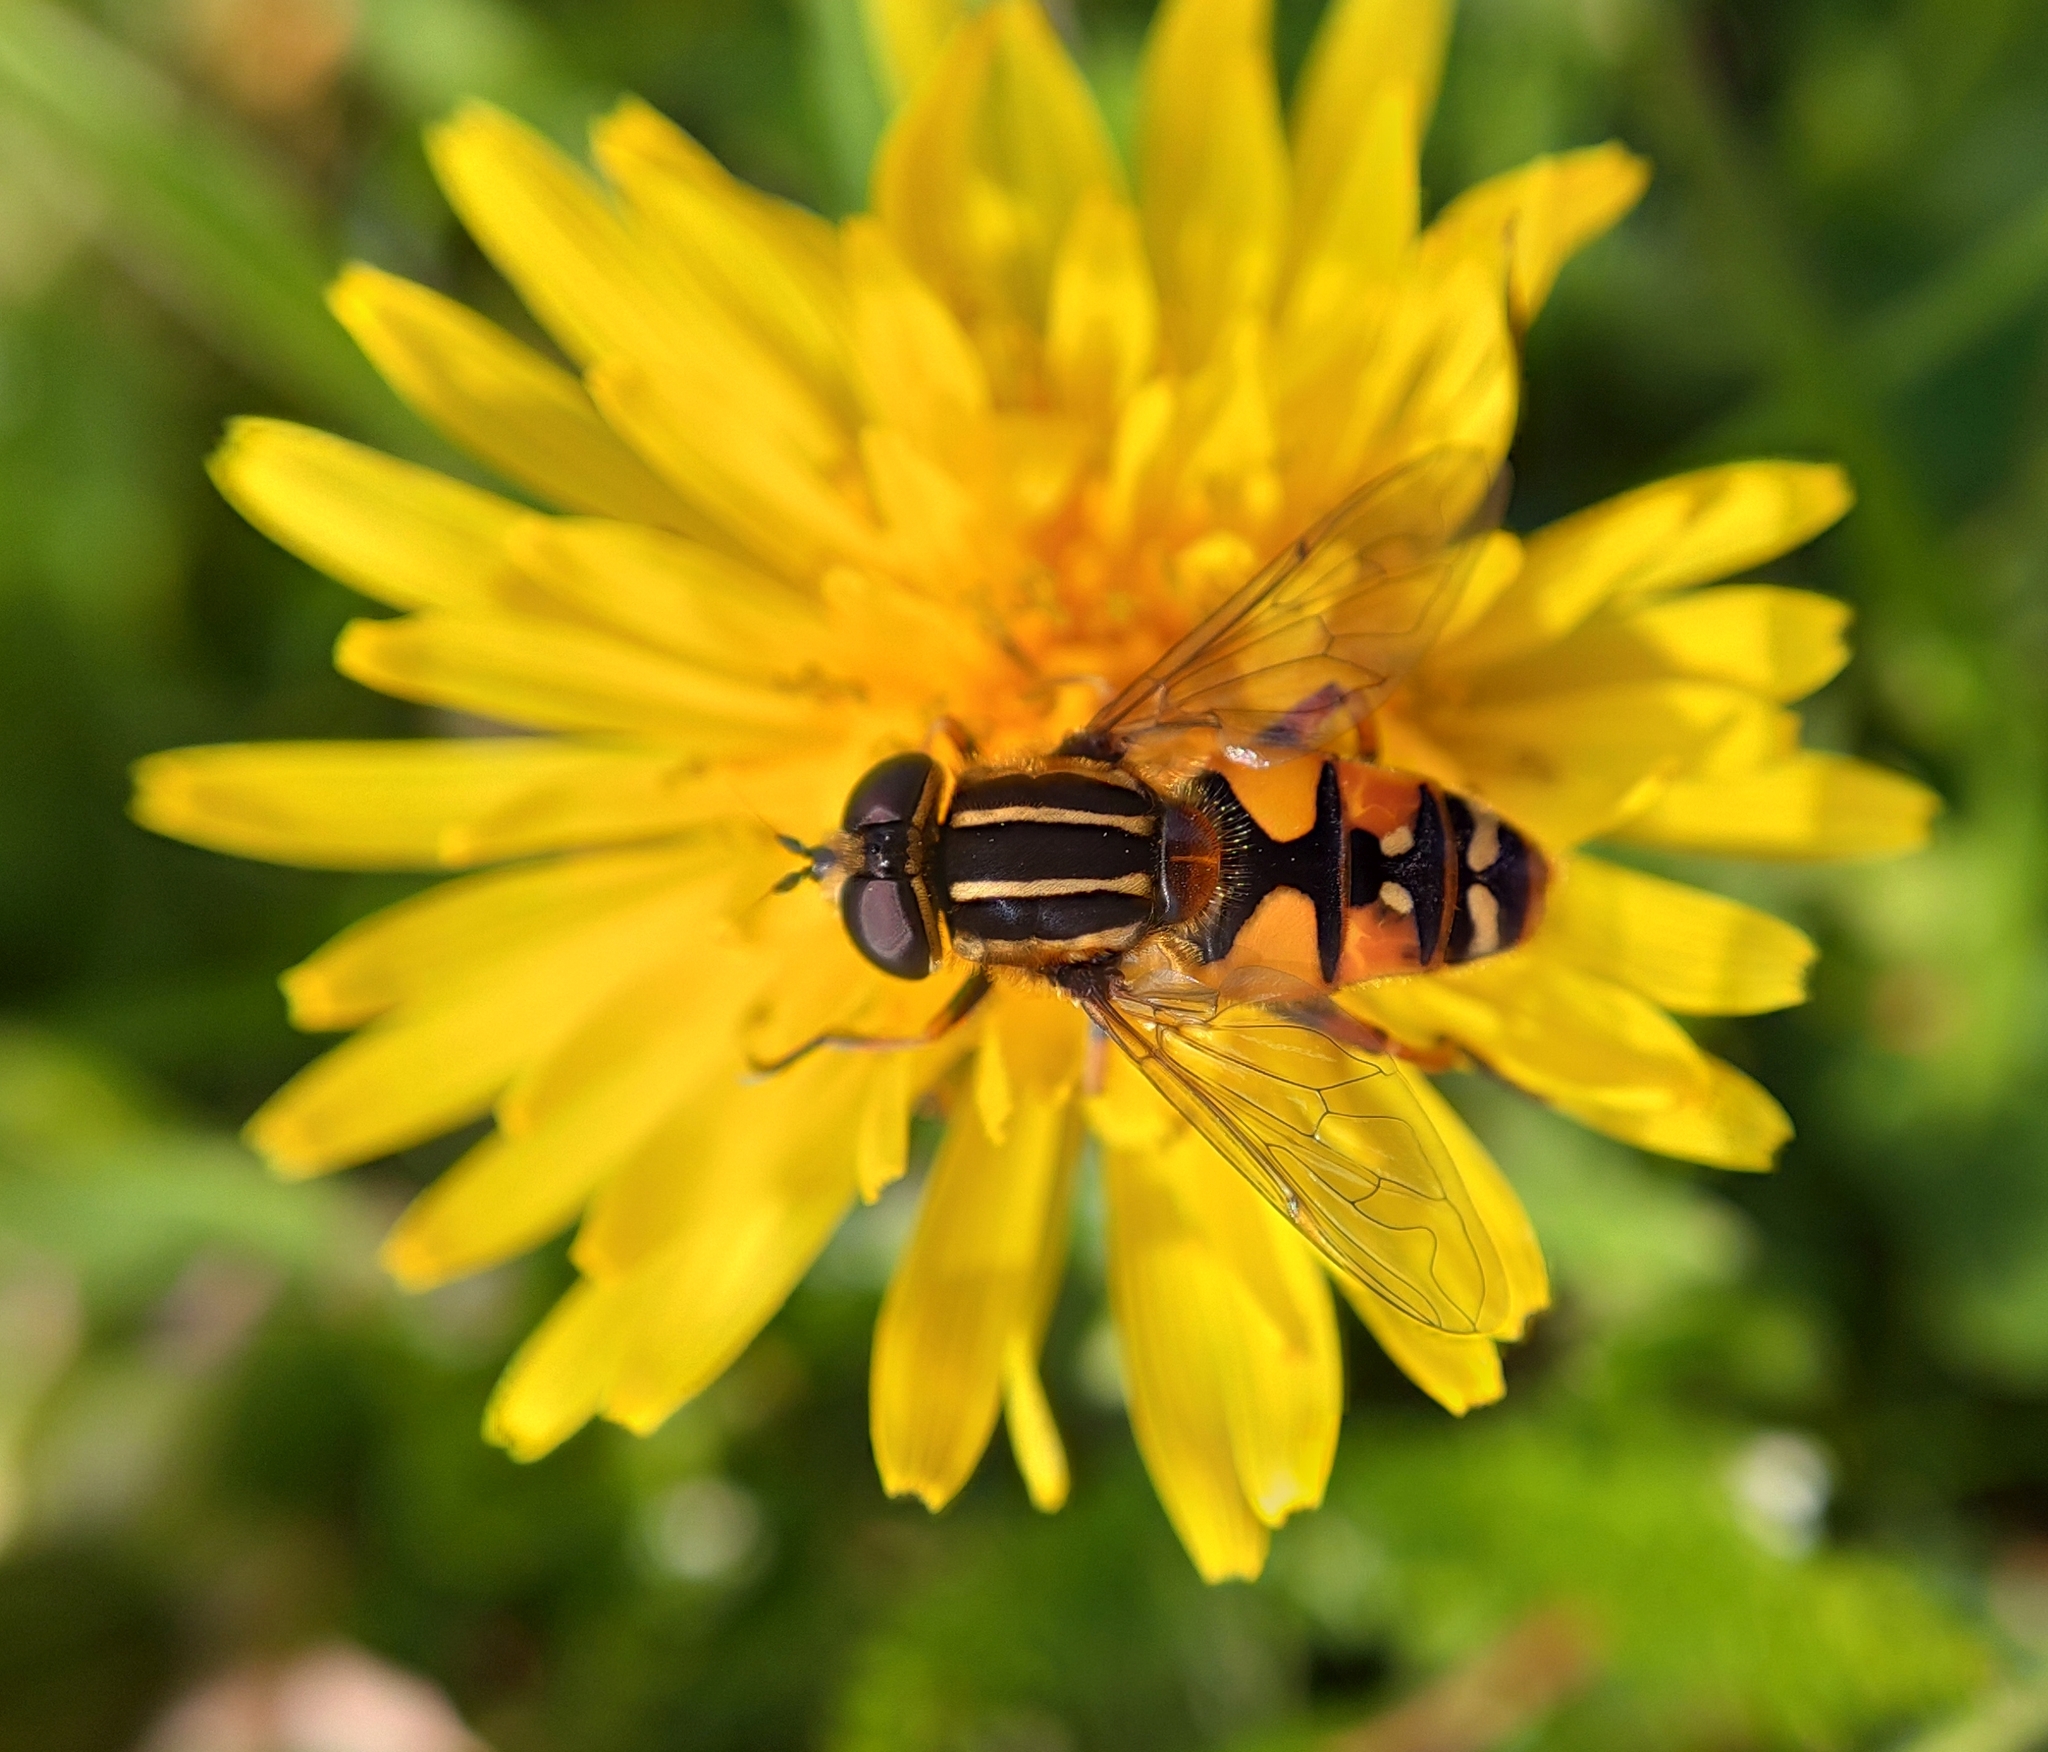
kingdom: Animalia
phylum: Arthropoda
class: Insecta
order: Diptera
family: Syrphidae
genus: Helophilus
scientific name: Helophilus pendulus
